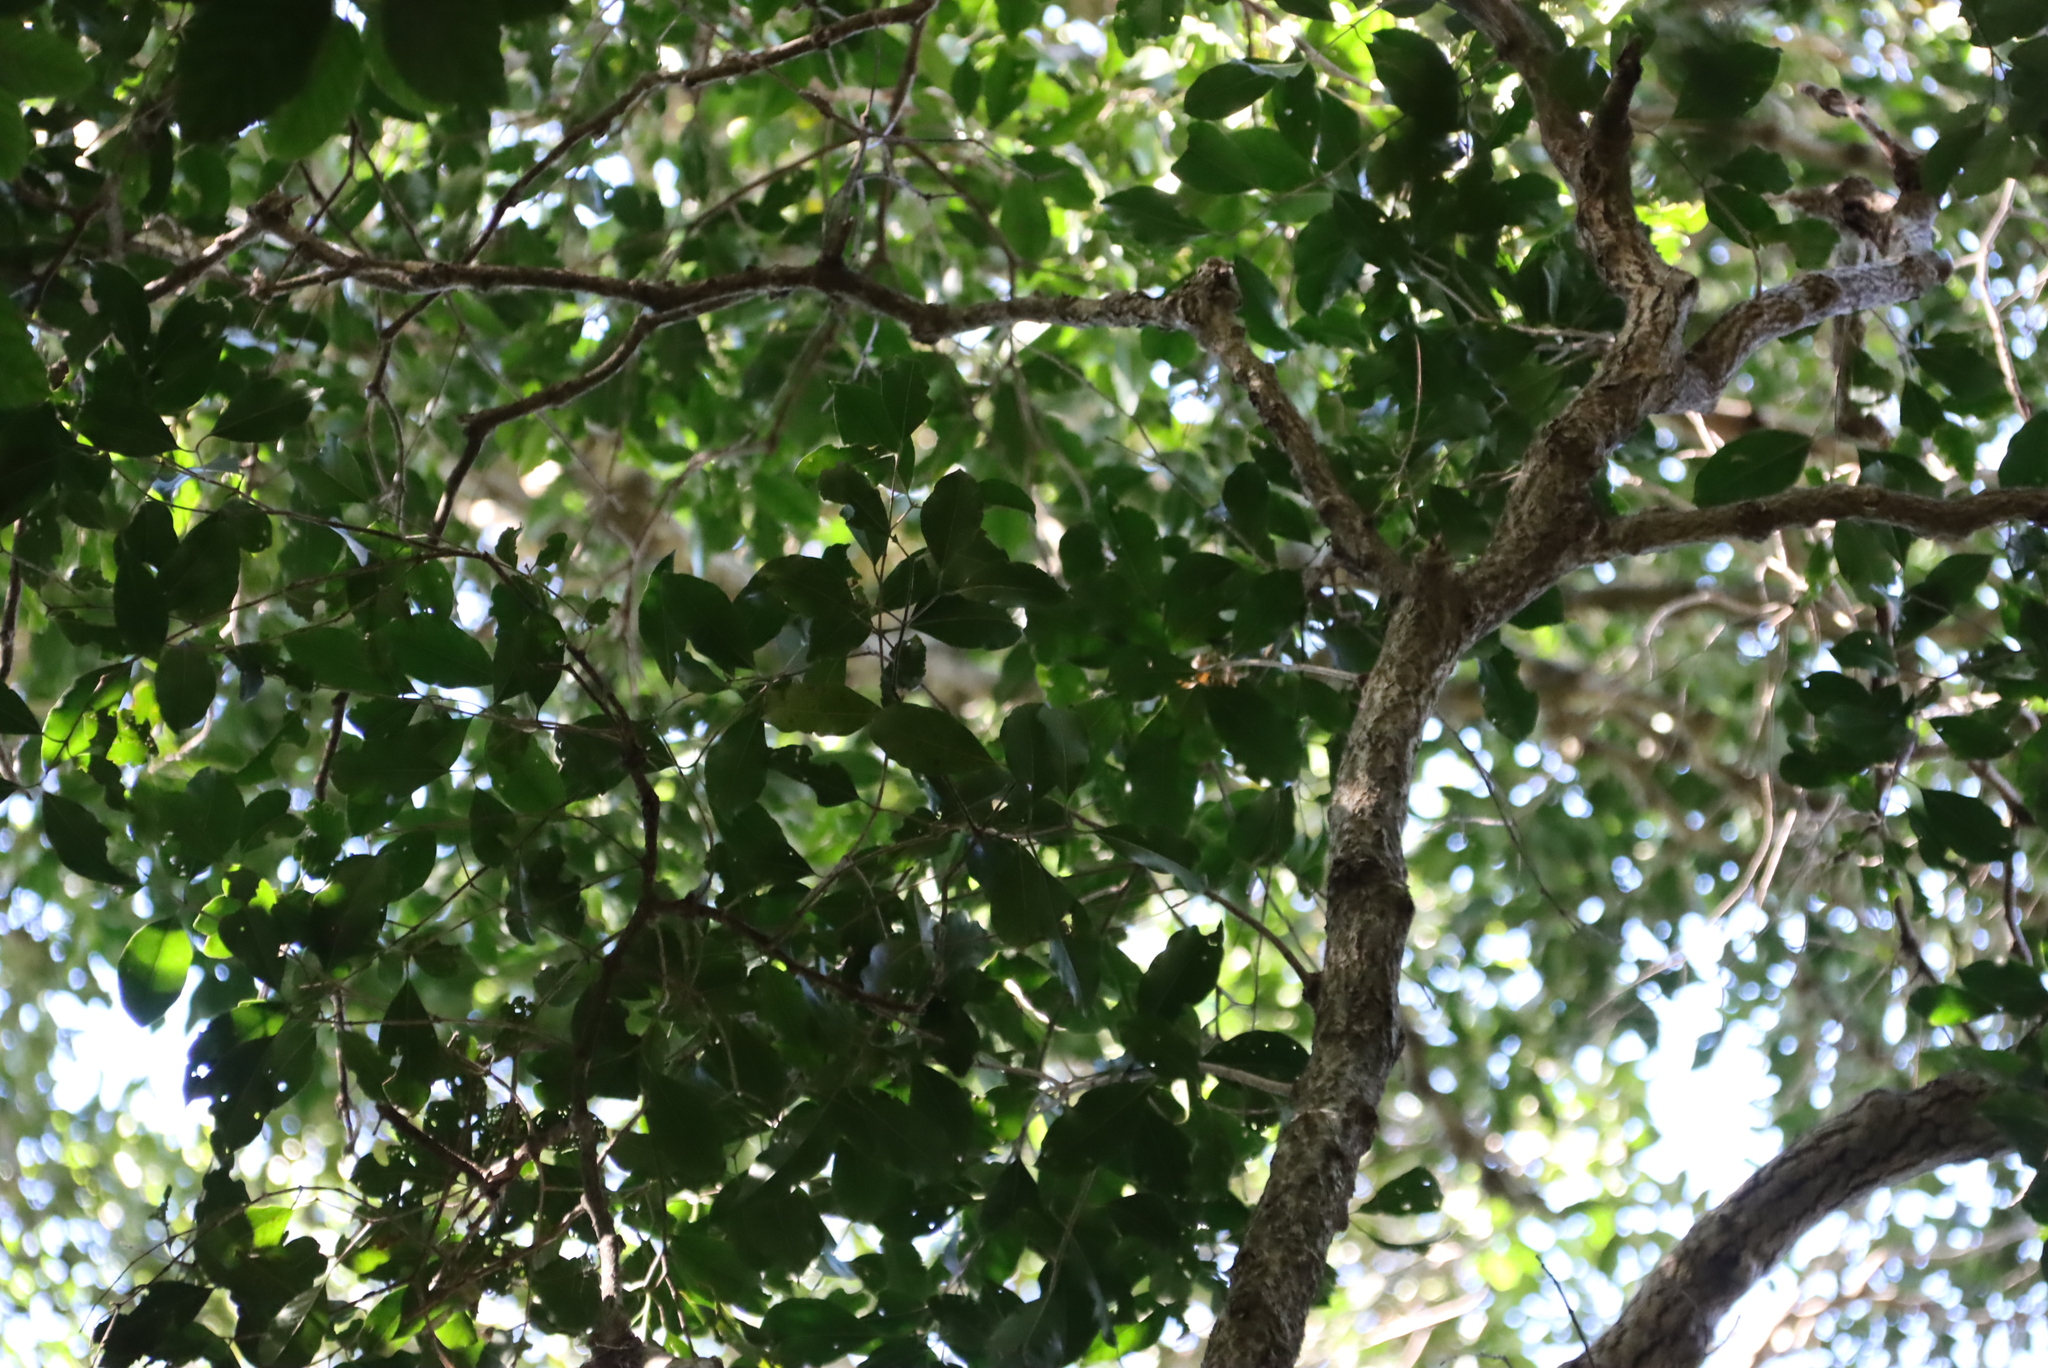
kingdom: Plantae
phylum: Tracheophyta
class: Magnoliopsida
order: Lamiales
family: Oleaceae
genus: Olea
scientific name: Olea capensis
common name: Black ironwood
